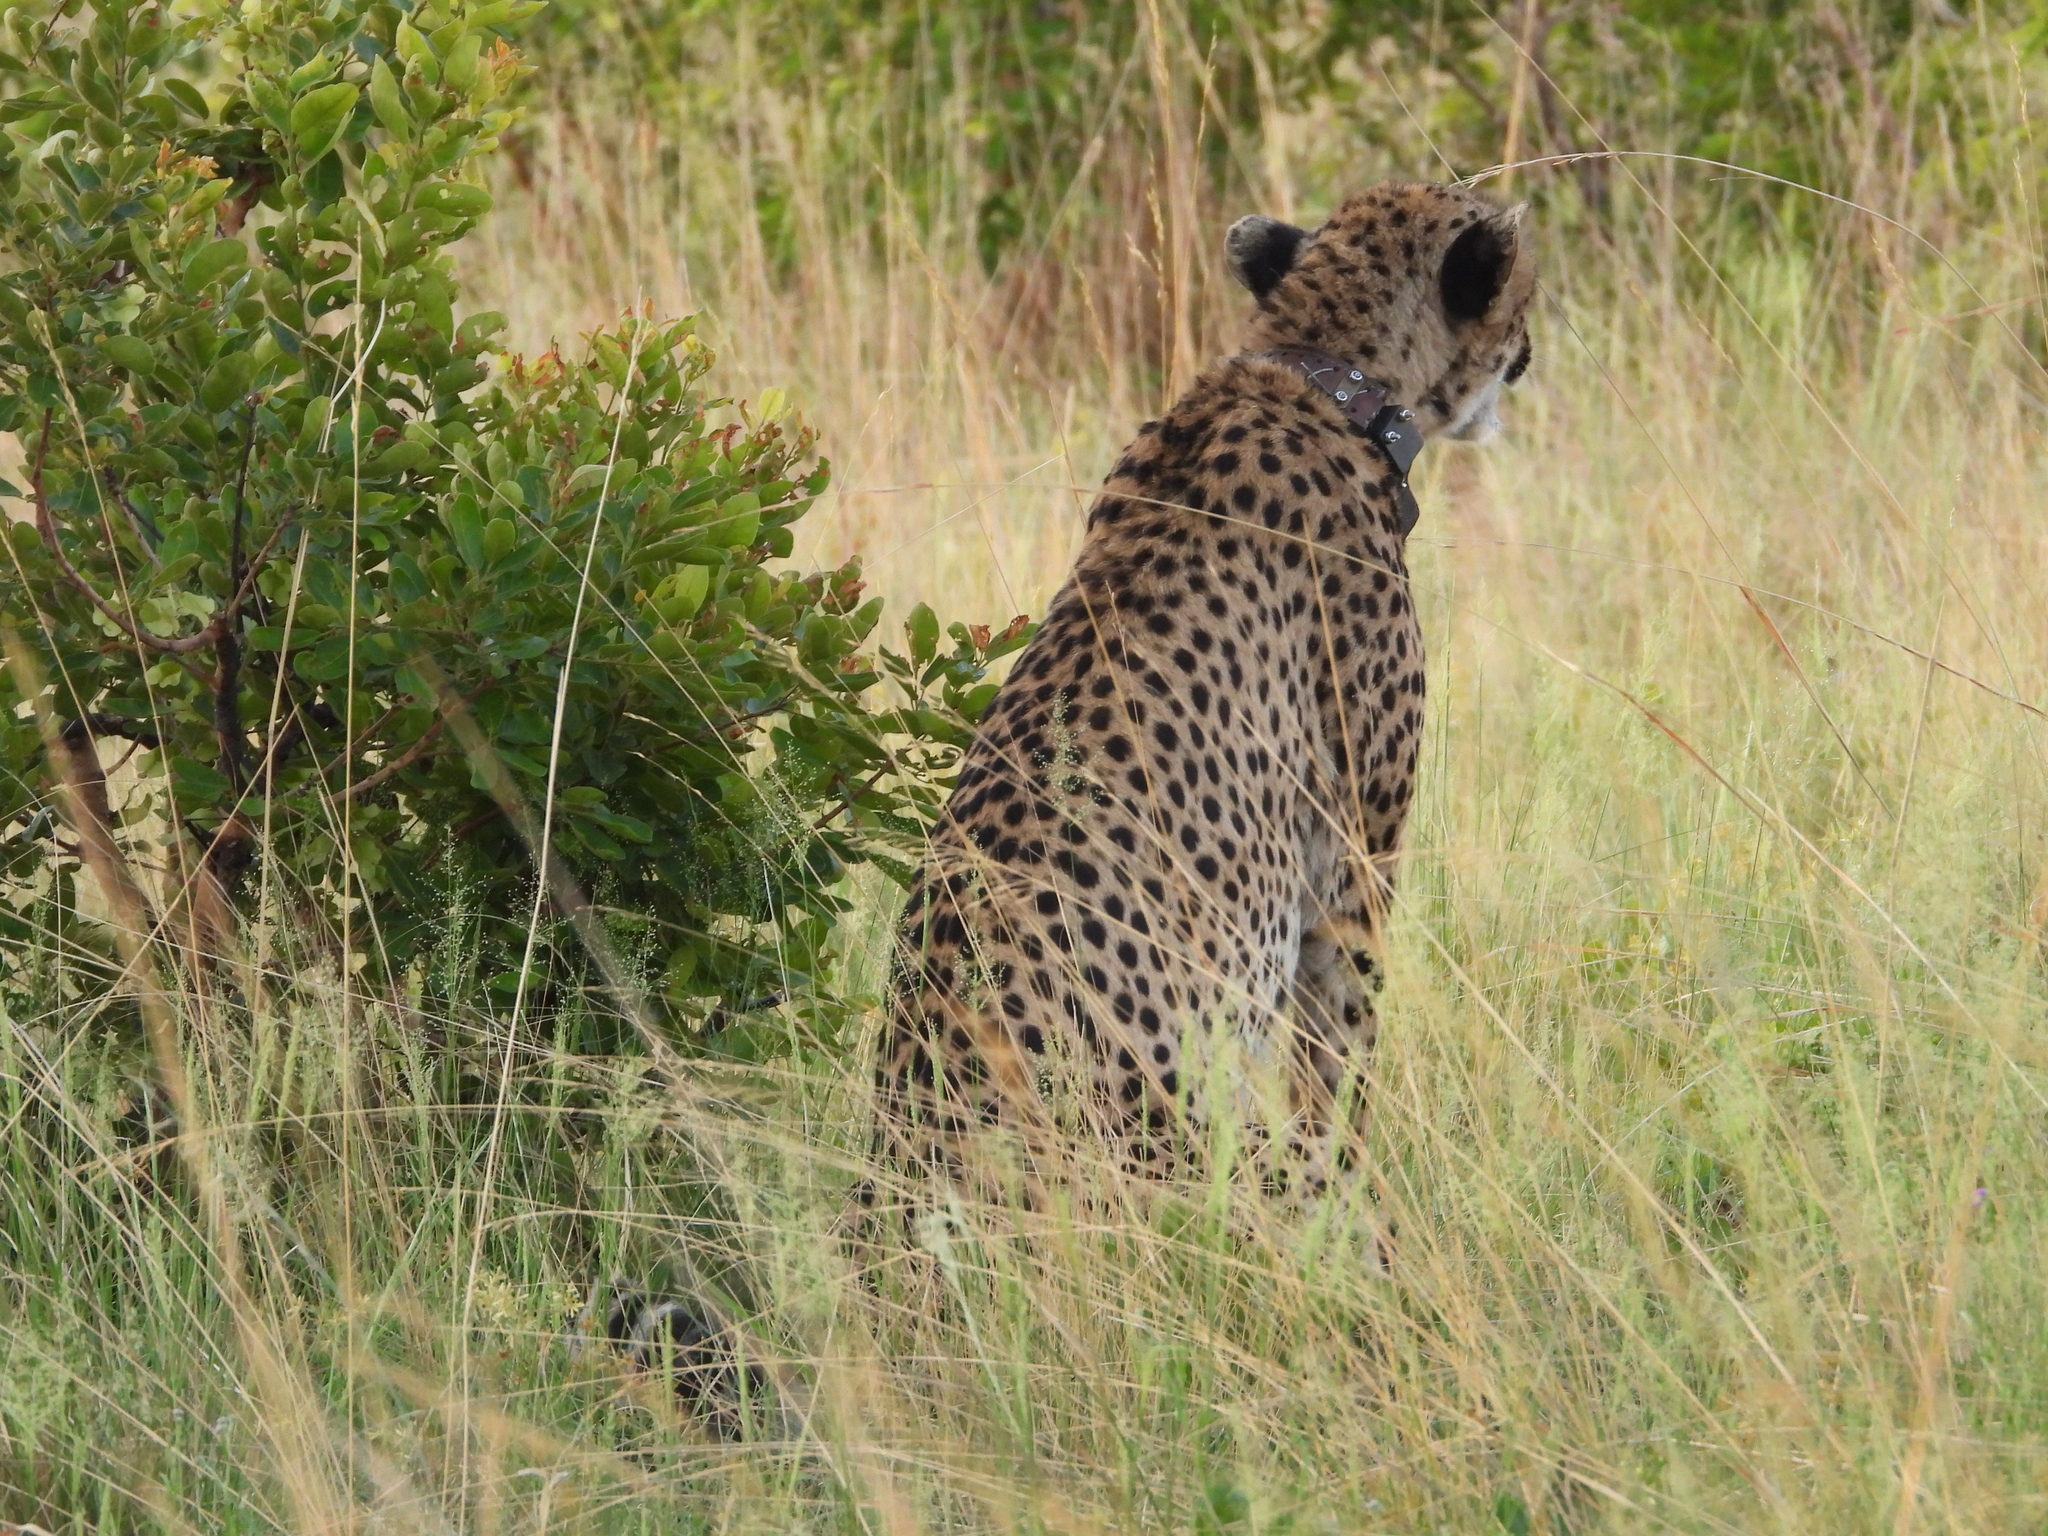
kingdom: Animalia
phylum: Chordata
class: Mammalia
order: Carnivora
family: Felidae
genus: Acinonyx
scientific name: Acinonyx jubatus
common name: Cheetah
